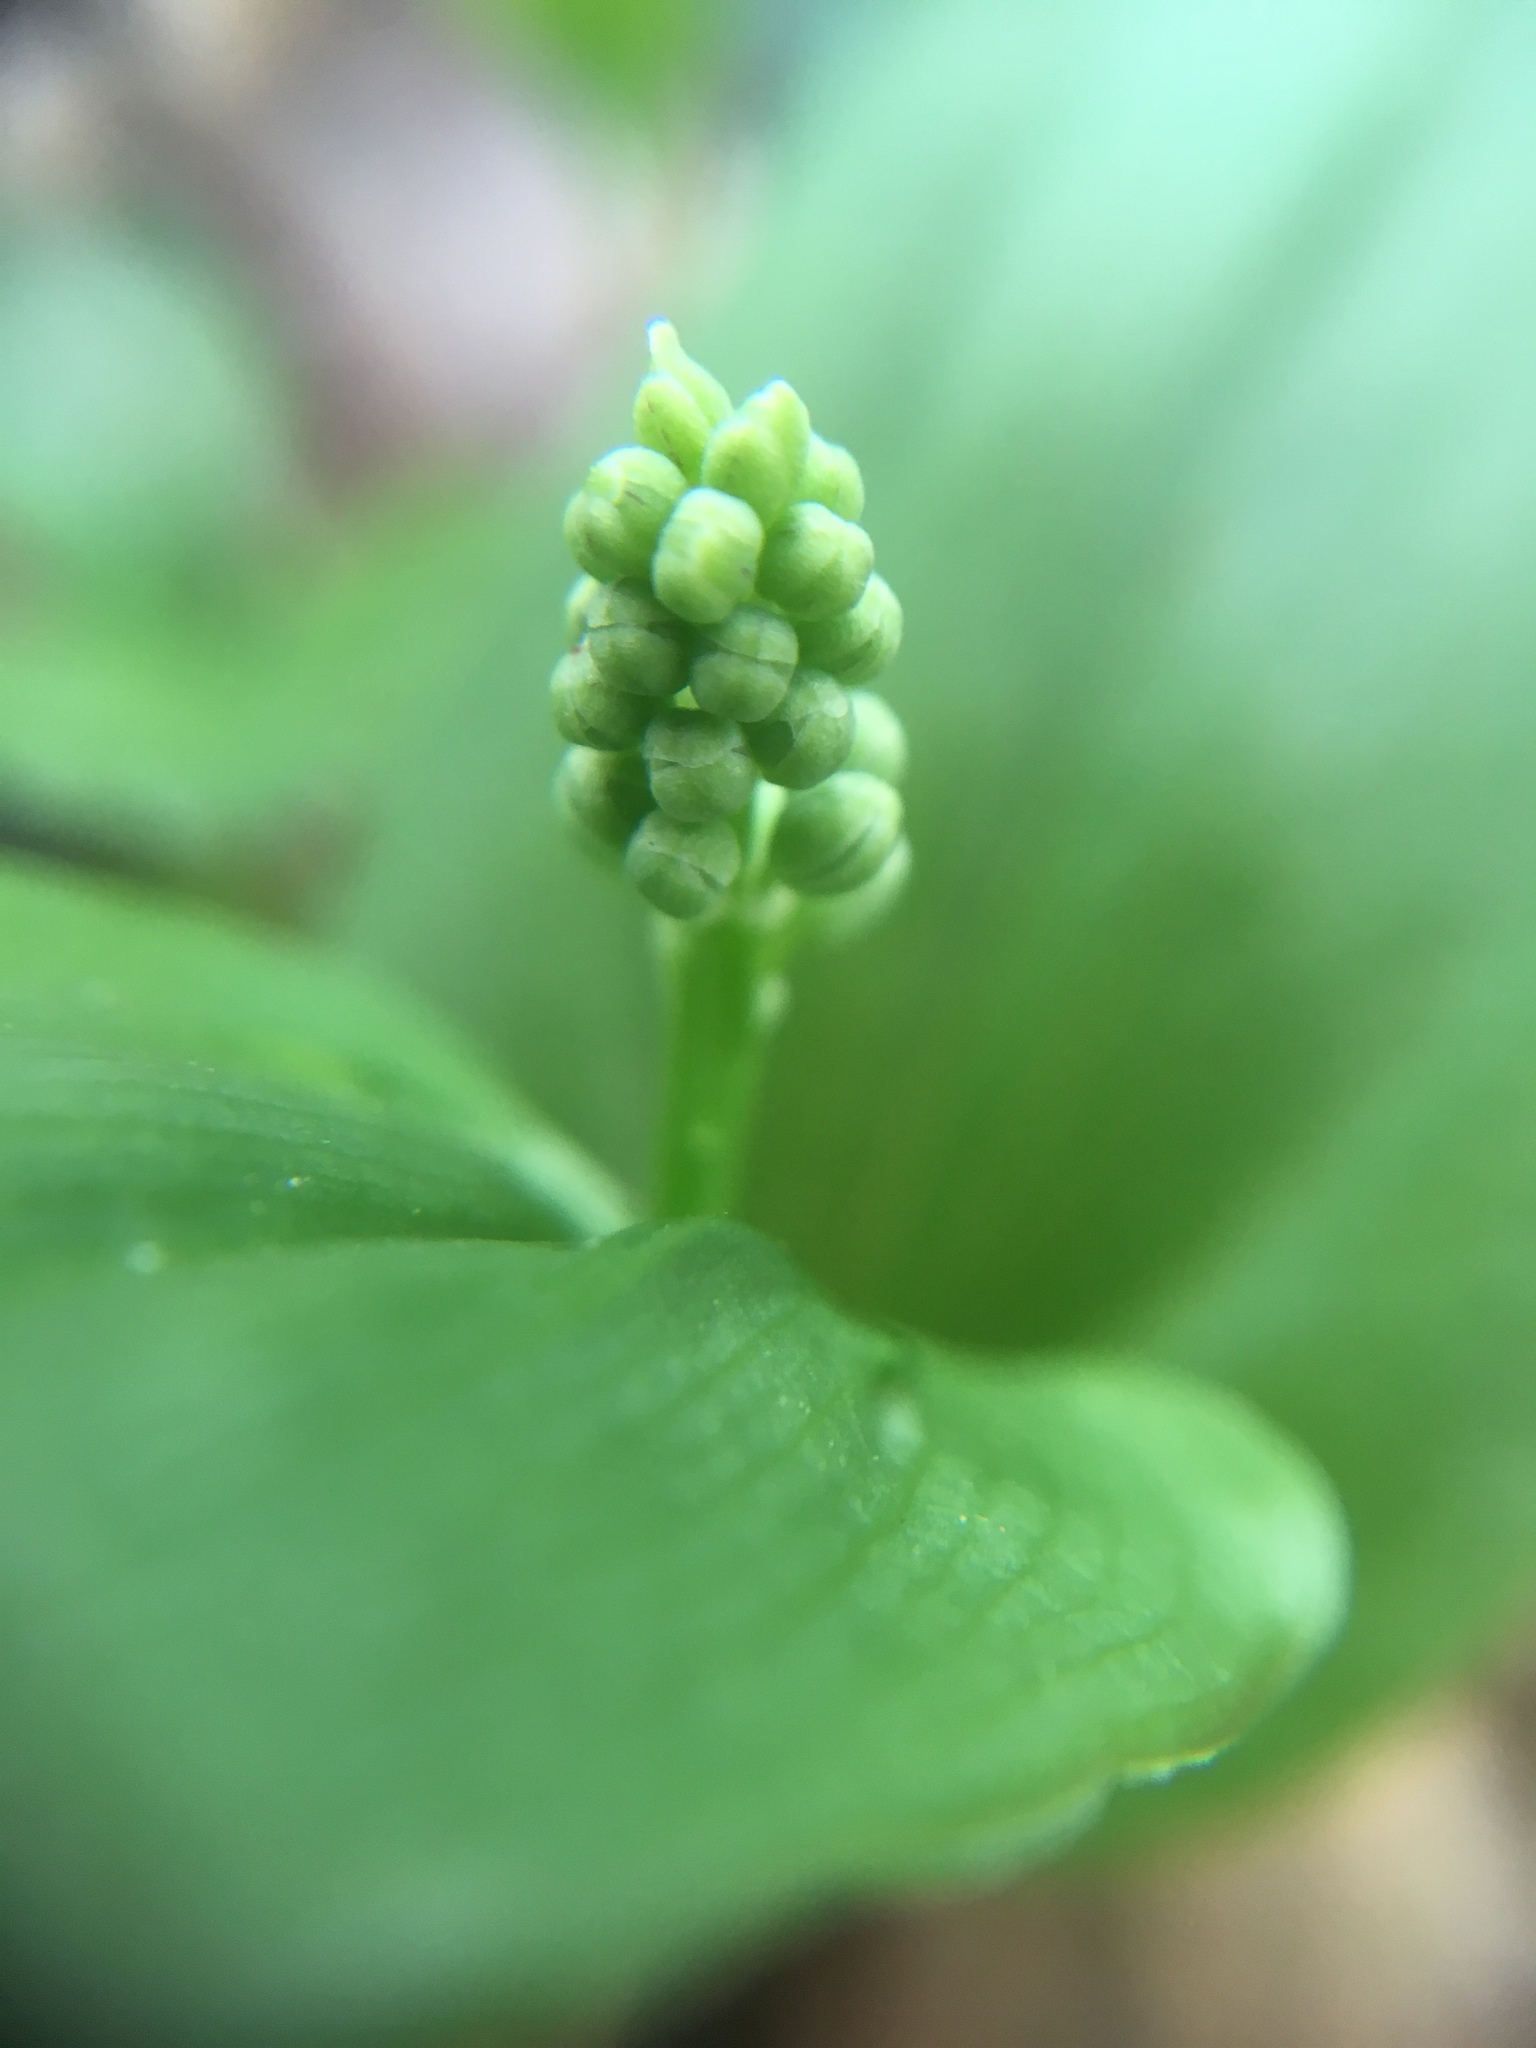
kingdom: Plantae
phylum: Tracheophyta
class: Liliopsida
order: Asparagales
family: Asparagaceae
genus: Maianthemum
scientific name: Maianthemum canadense
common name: False lily-of-the-valley
